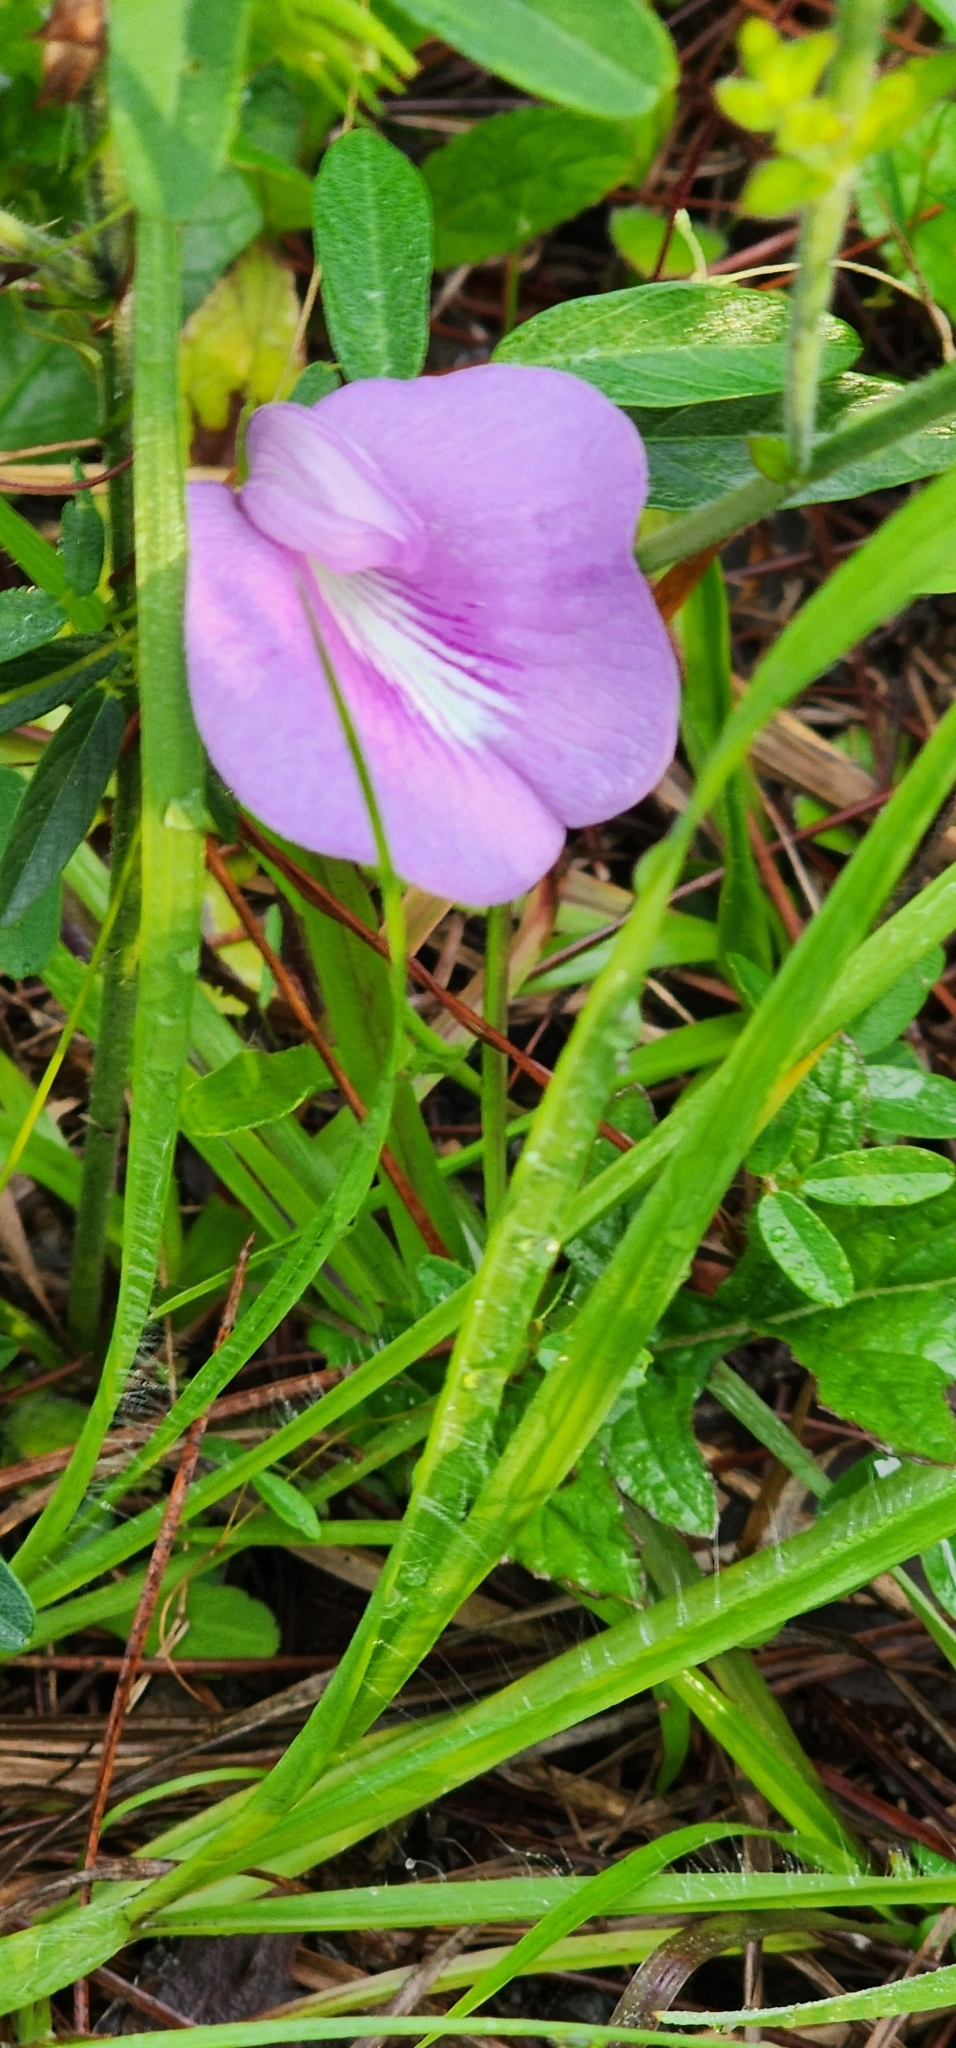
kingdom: Plantae
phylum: Tracheophyta
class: Magnoliopsida
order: Fabales
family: Fabaceae
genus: Centrosema
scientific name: Centrosema virginianum
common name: Butterfly-pea
